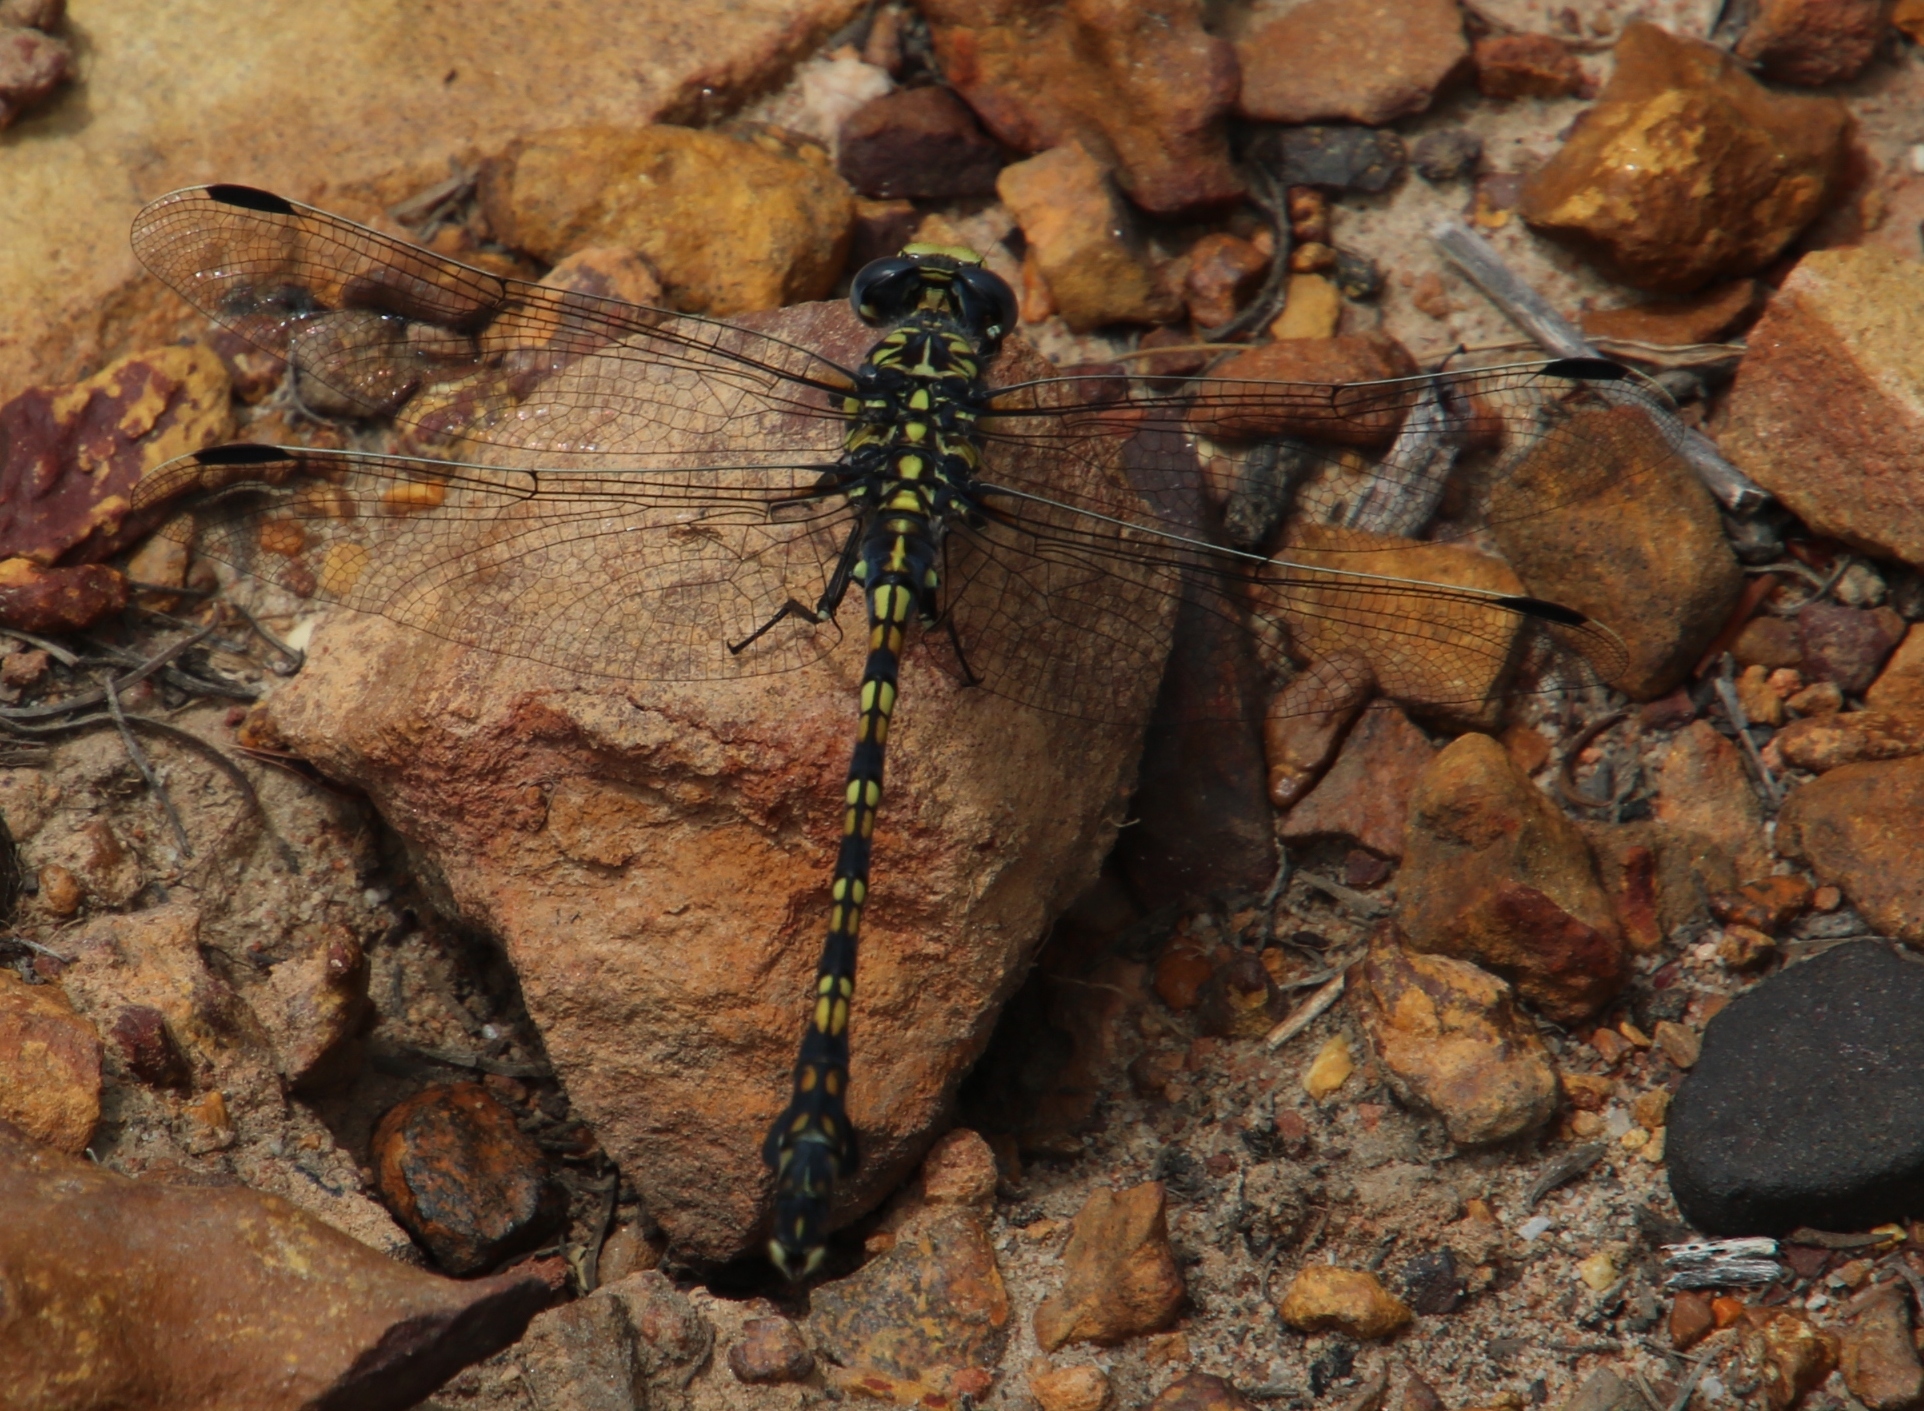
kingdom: Animalia
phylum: Arthropoda
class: Insecta
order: Odonata
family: Gomphidae
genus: Ceratogomphus
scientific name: Ceratogomphus triceraticus
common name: Cape thorntail
